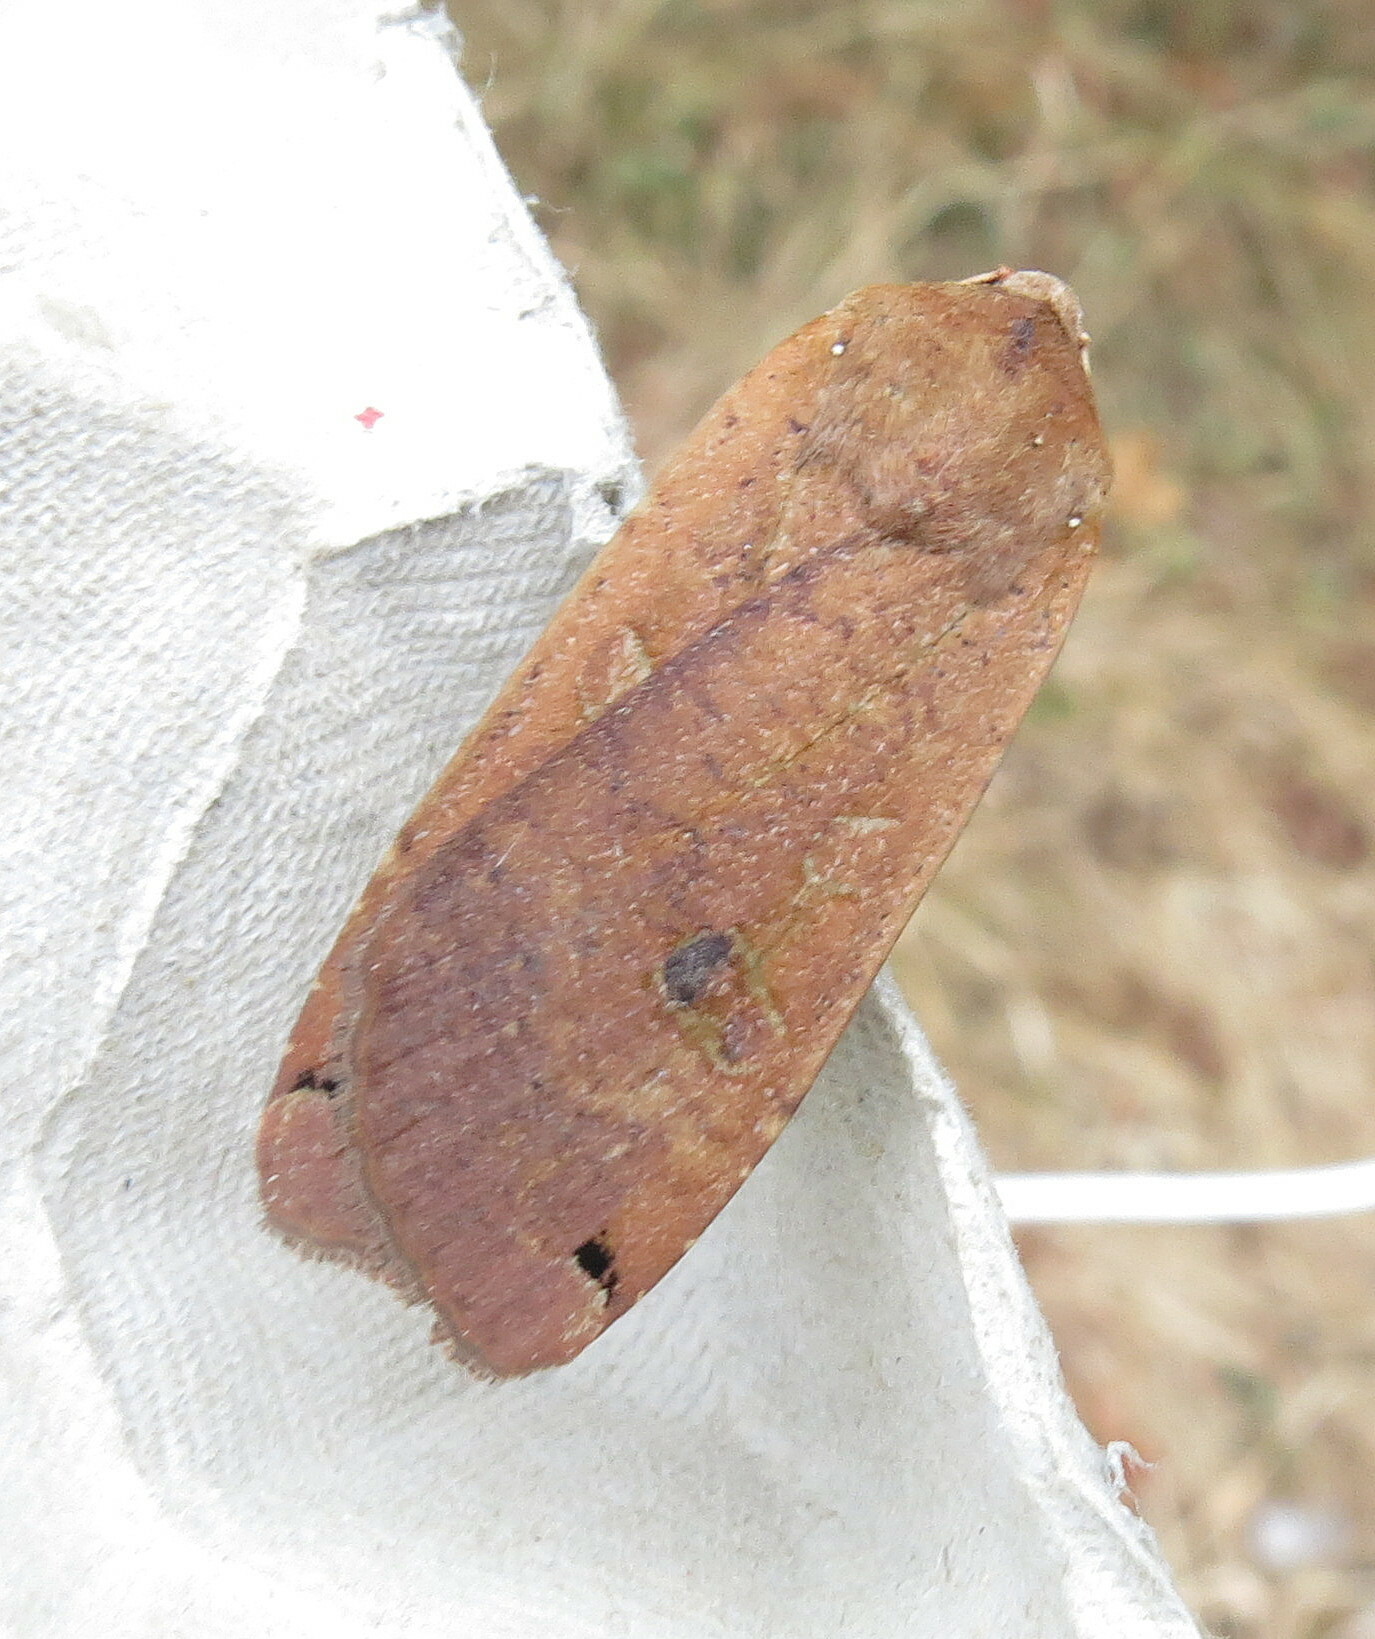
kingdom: Animalia
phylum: Arthropoda
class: Insecta
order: Lepidoptera
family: Noctuidae
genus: Noctua
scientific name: Noctua pronuba
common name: Large yellow underwing
